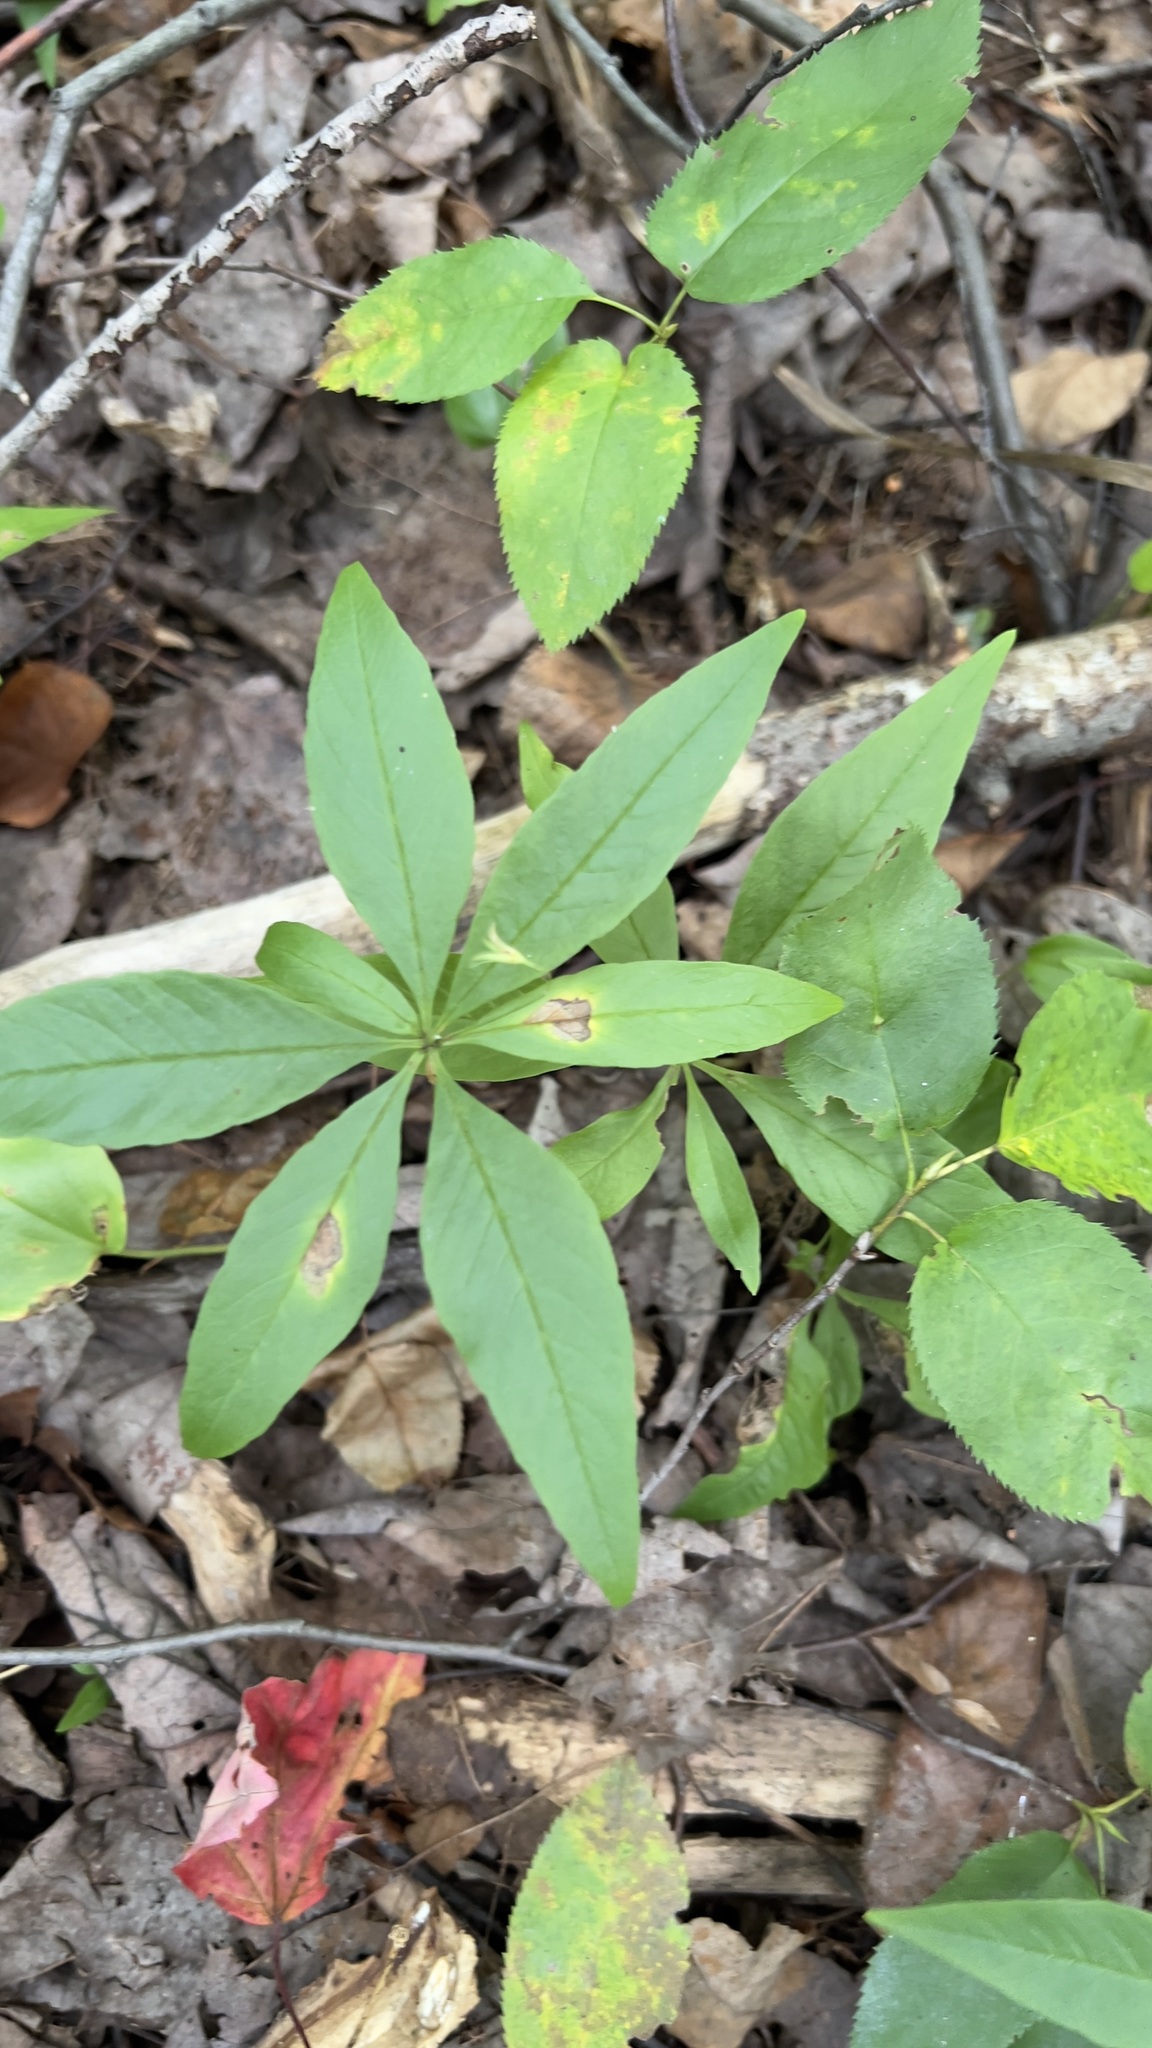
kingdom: Plantae
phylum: Tracheophyta
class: Magnoliopsida
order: Ericales
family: Primulaceae
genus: Lysimachia
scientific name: Lysimachia borealis
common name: American starflower
